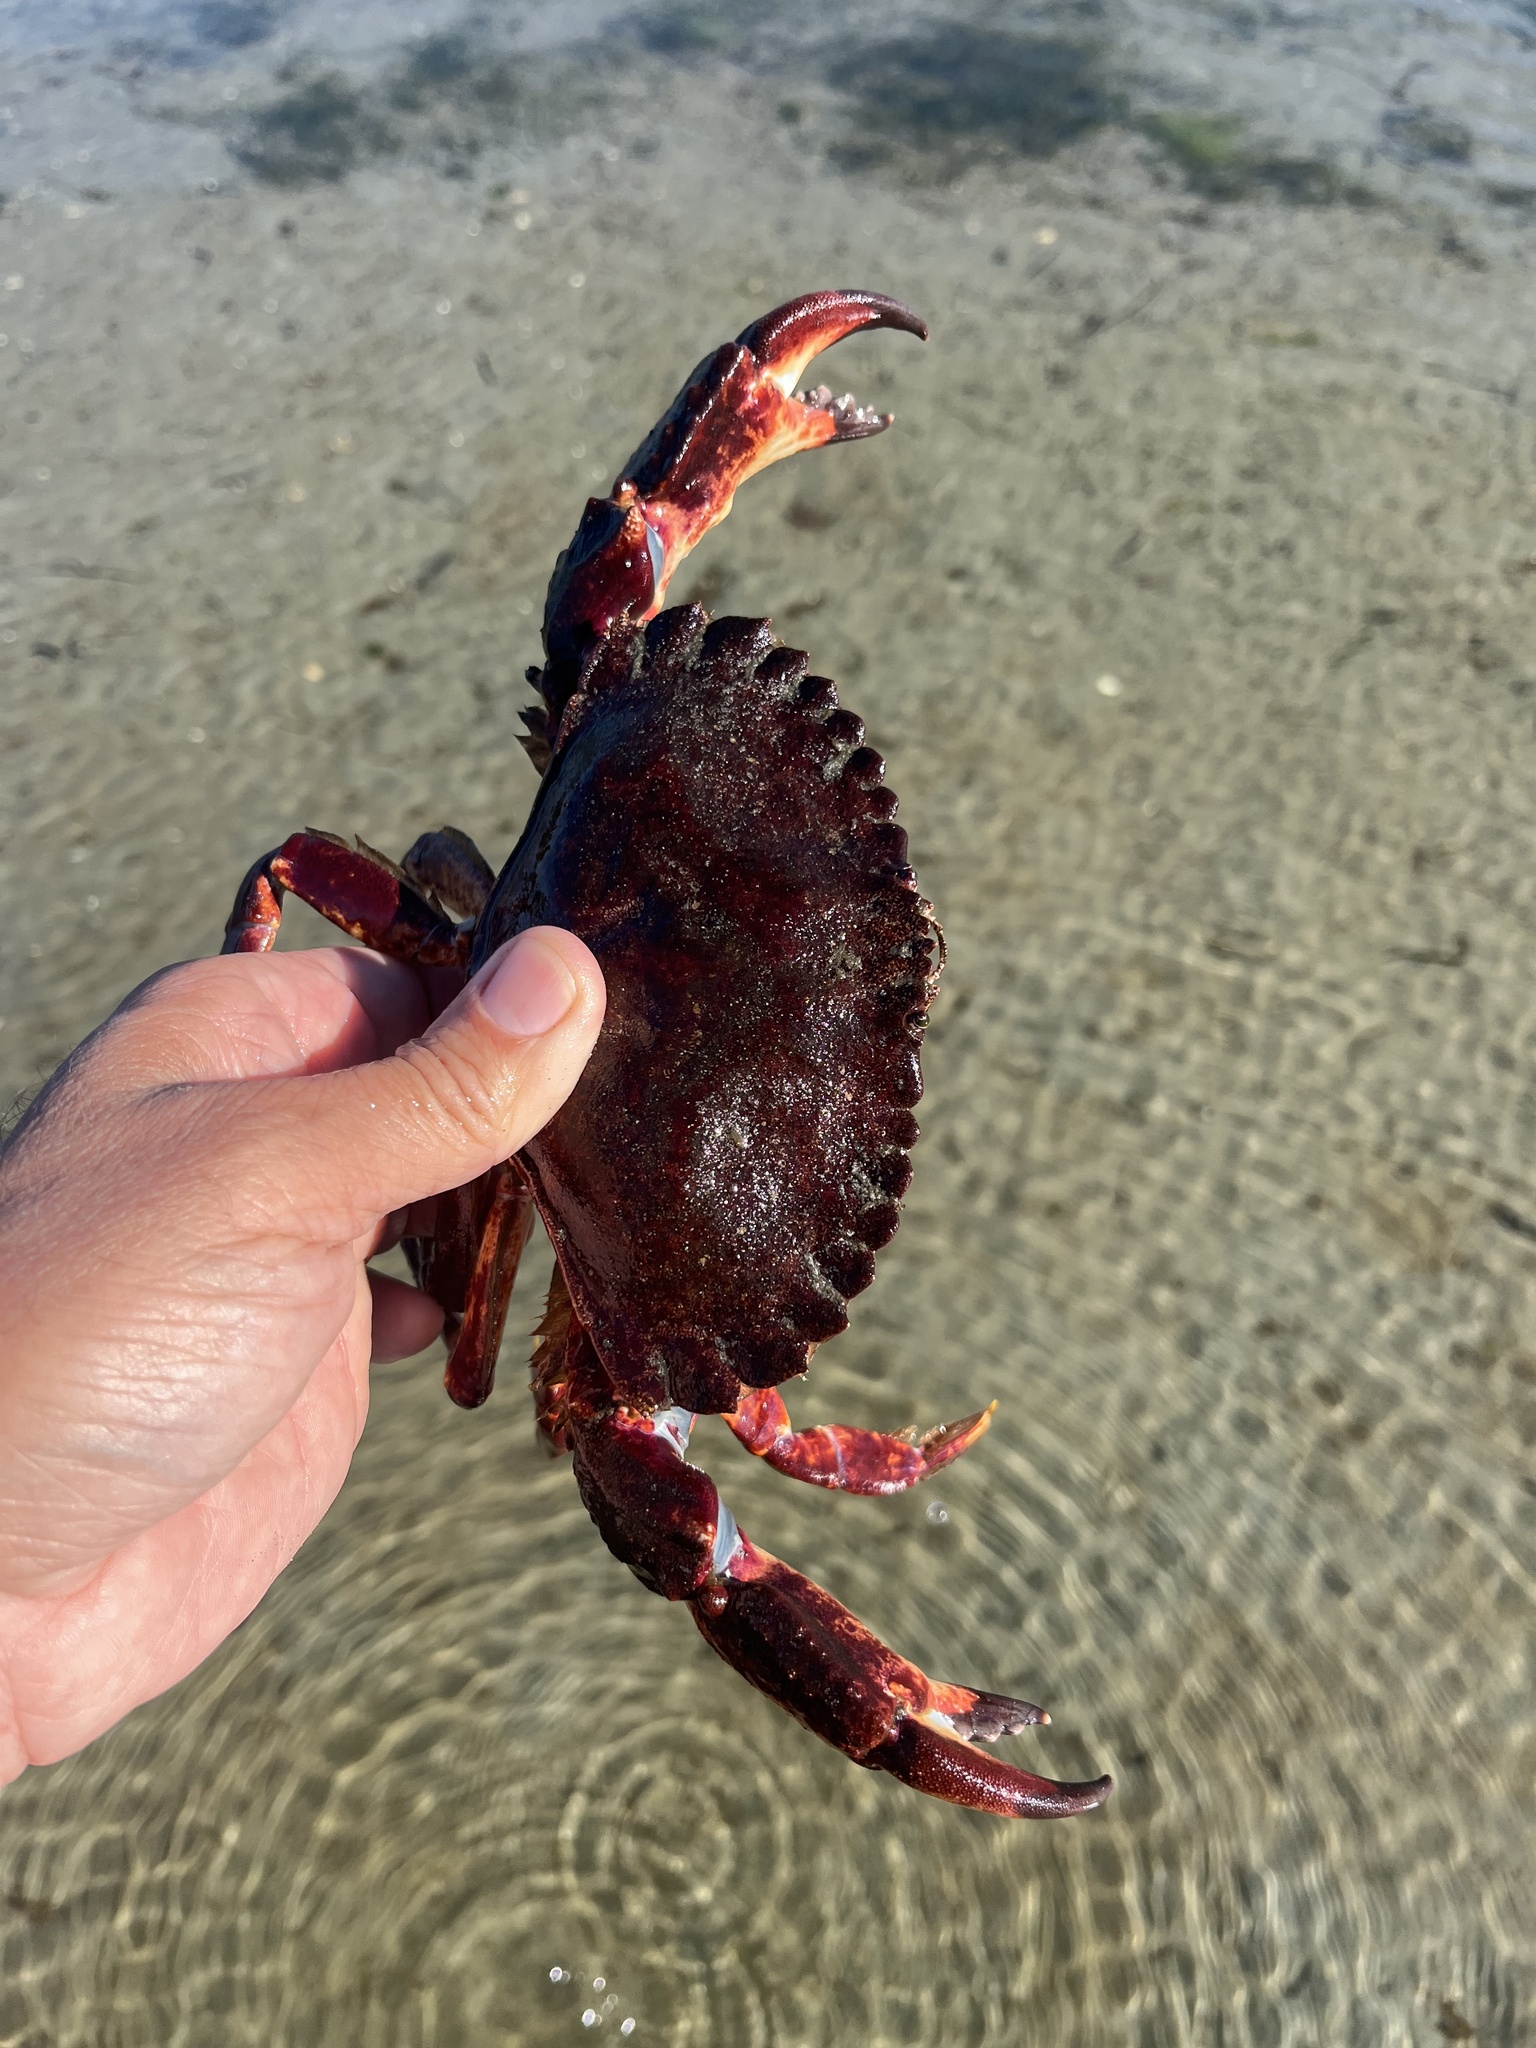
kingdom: Animalia
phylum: Arthropoda
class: Malacostraca
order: Decapoda
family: Cancridae
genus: Cancer
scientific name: Cancer productus
